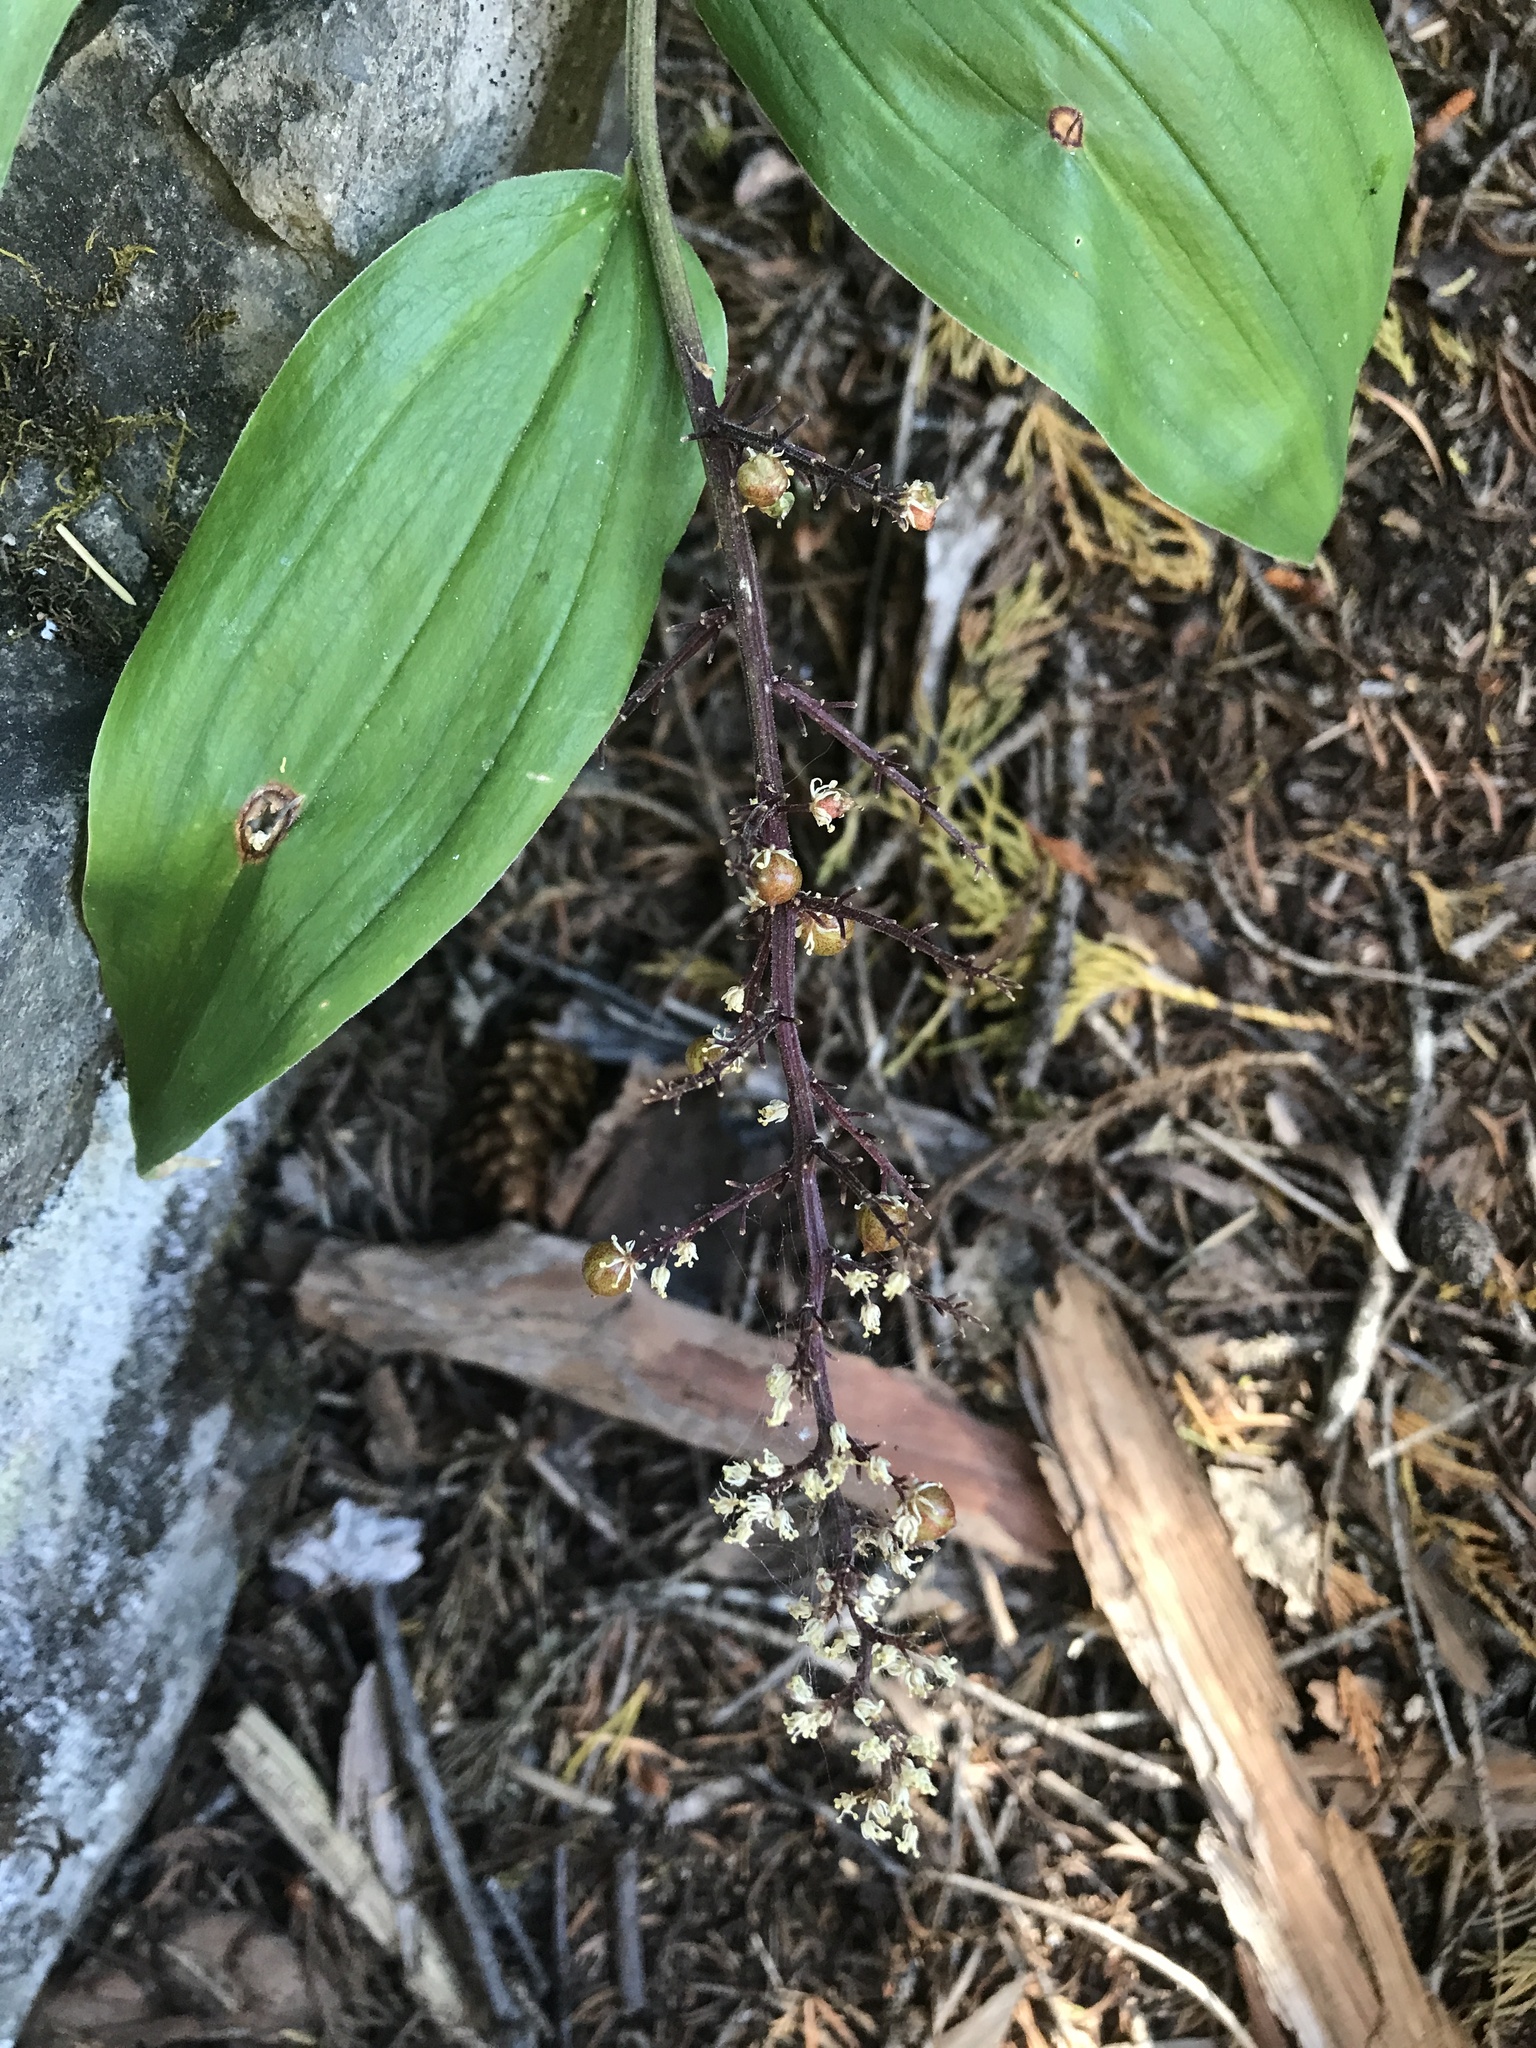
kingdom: Plantae
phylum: Tracheophyta
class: Liliopsida
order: Asparagales
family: Asparagaceae
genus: Maianthemum
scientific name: Maianthemum racemosum
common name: False spikenard
